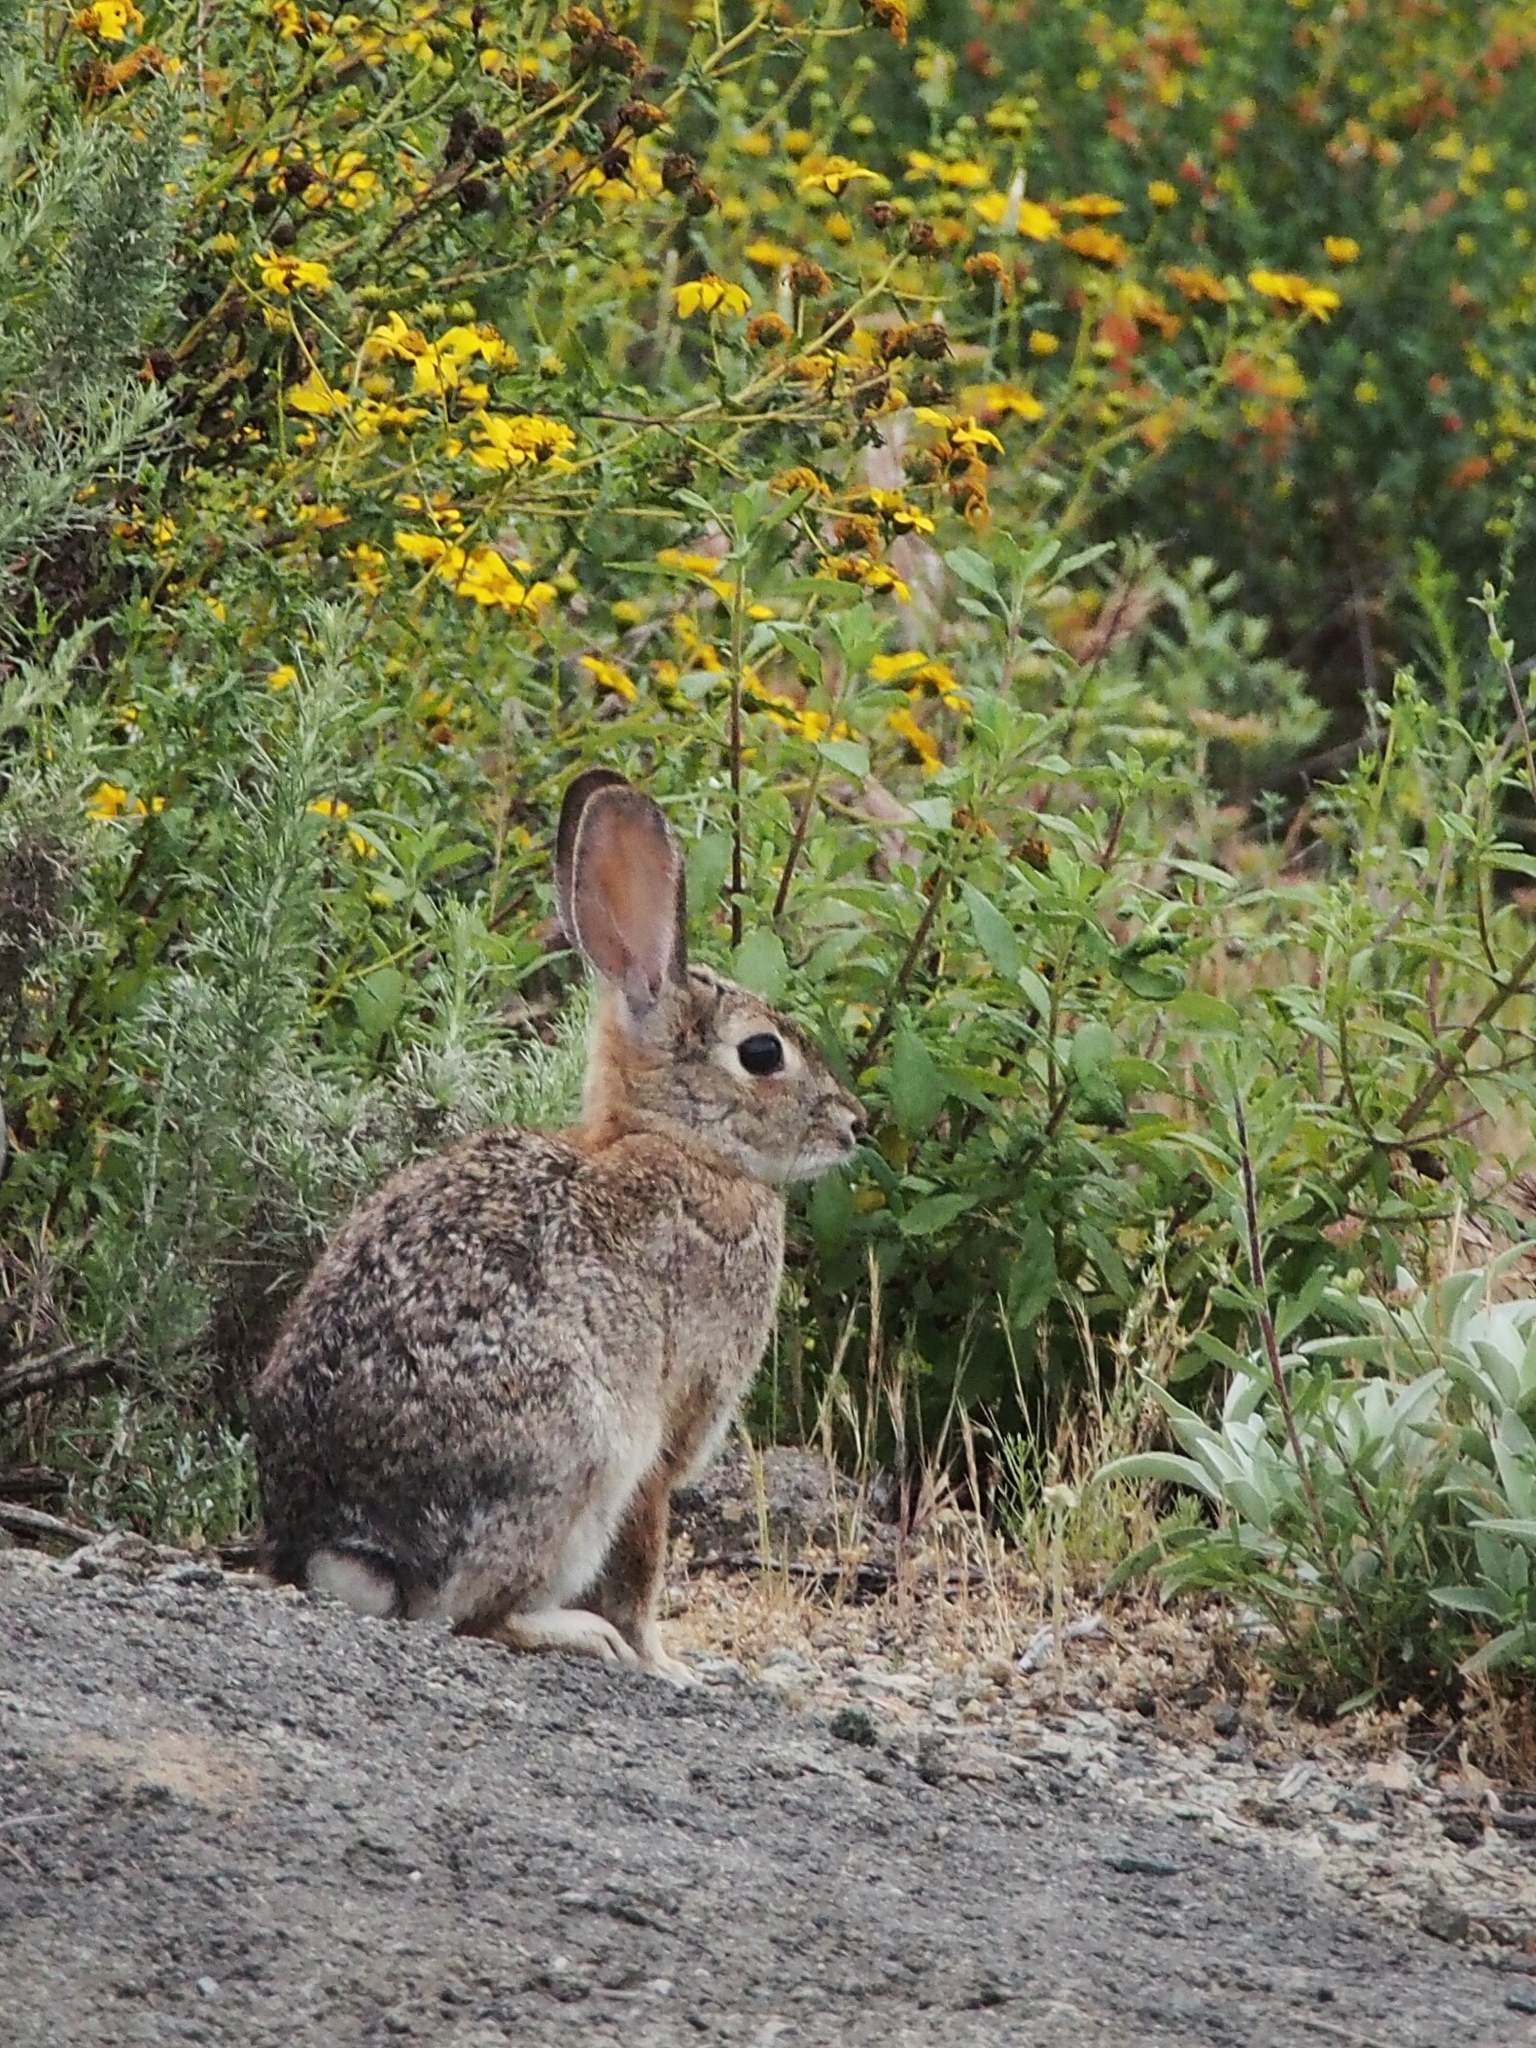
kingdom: Animalia
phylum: Chordata
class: Mammalia
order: Lagomorpha
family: Leporidae
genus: Sylvilagus
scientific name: Sylvilagus audubonii
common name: Desert cottontail
